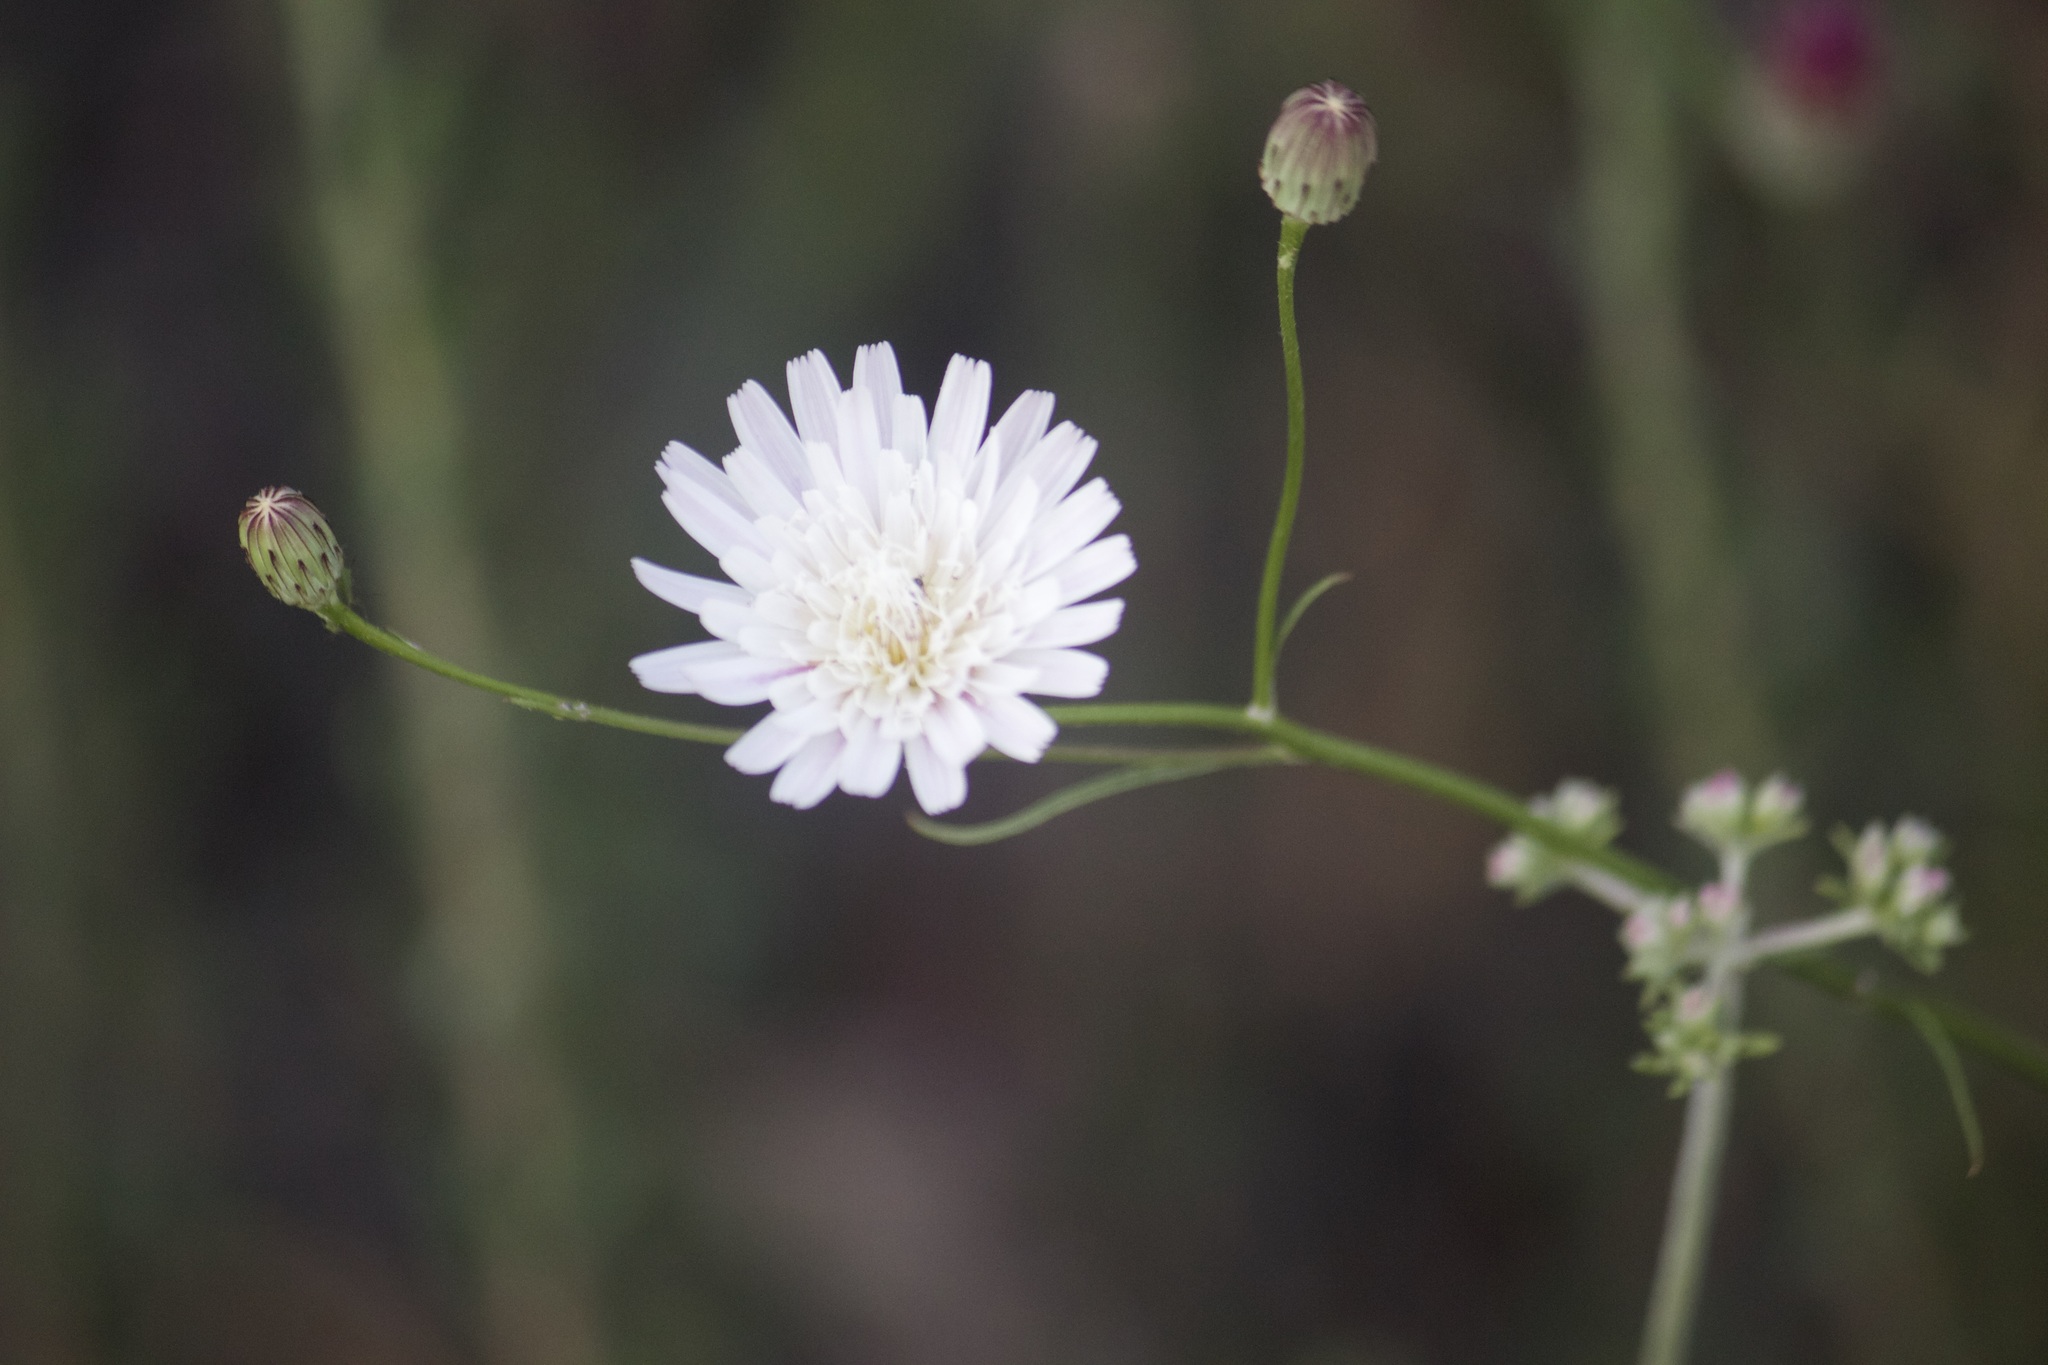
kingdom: Plantae
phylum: Tracheophyta
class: Magnoliopsida
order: Asterales
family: Asteraceae
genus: Malacothrix
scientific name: Malacothrix saxatilis
